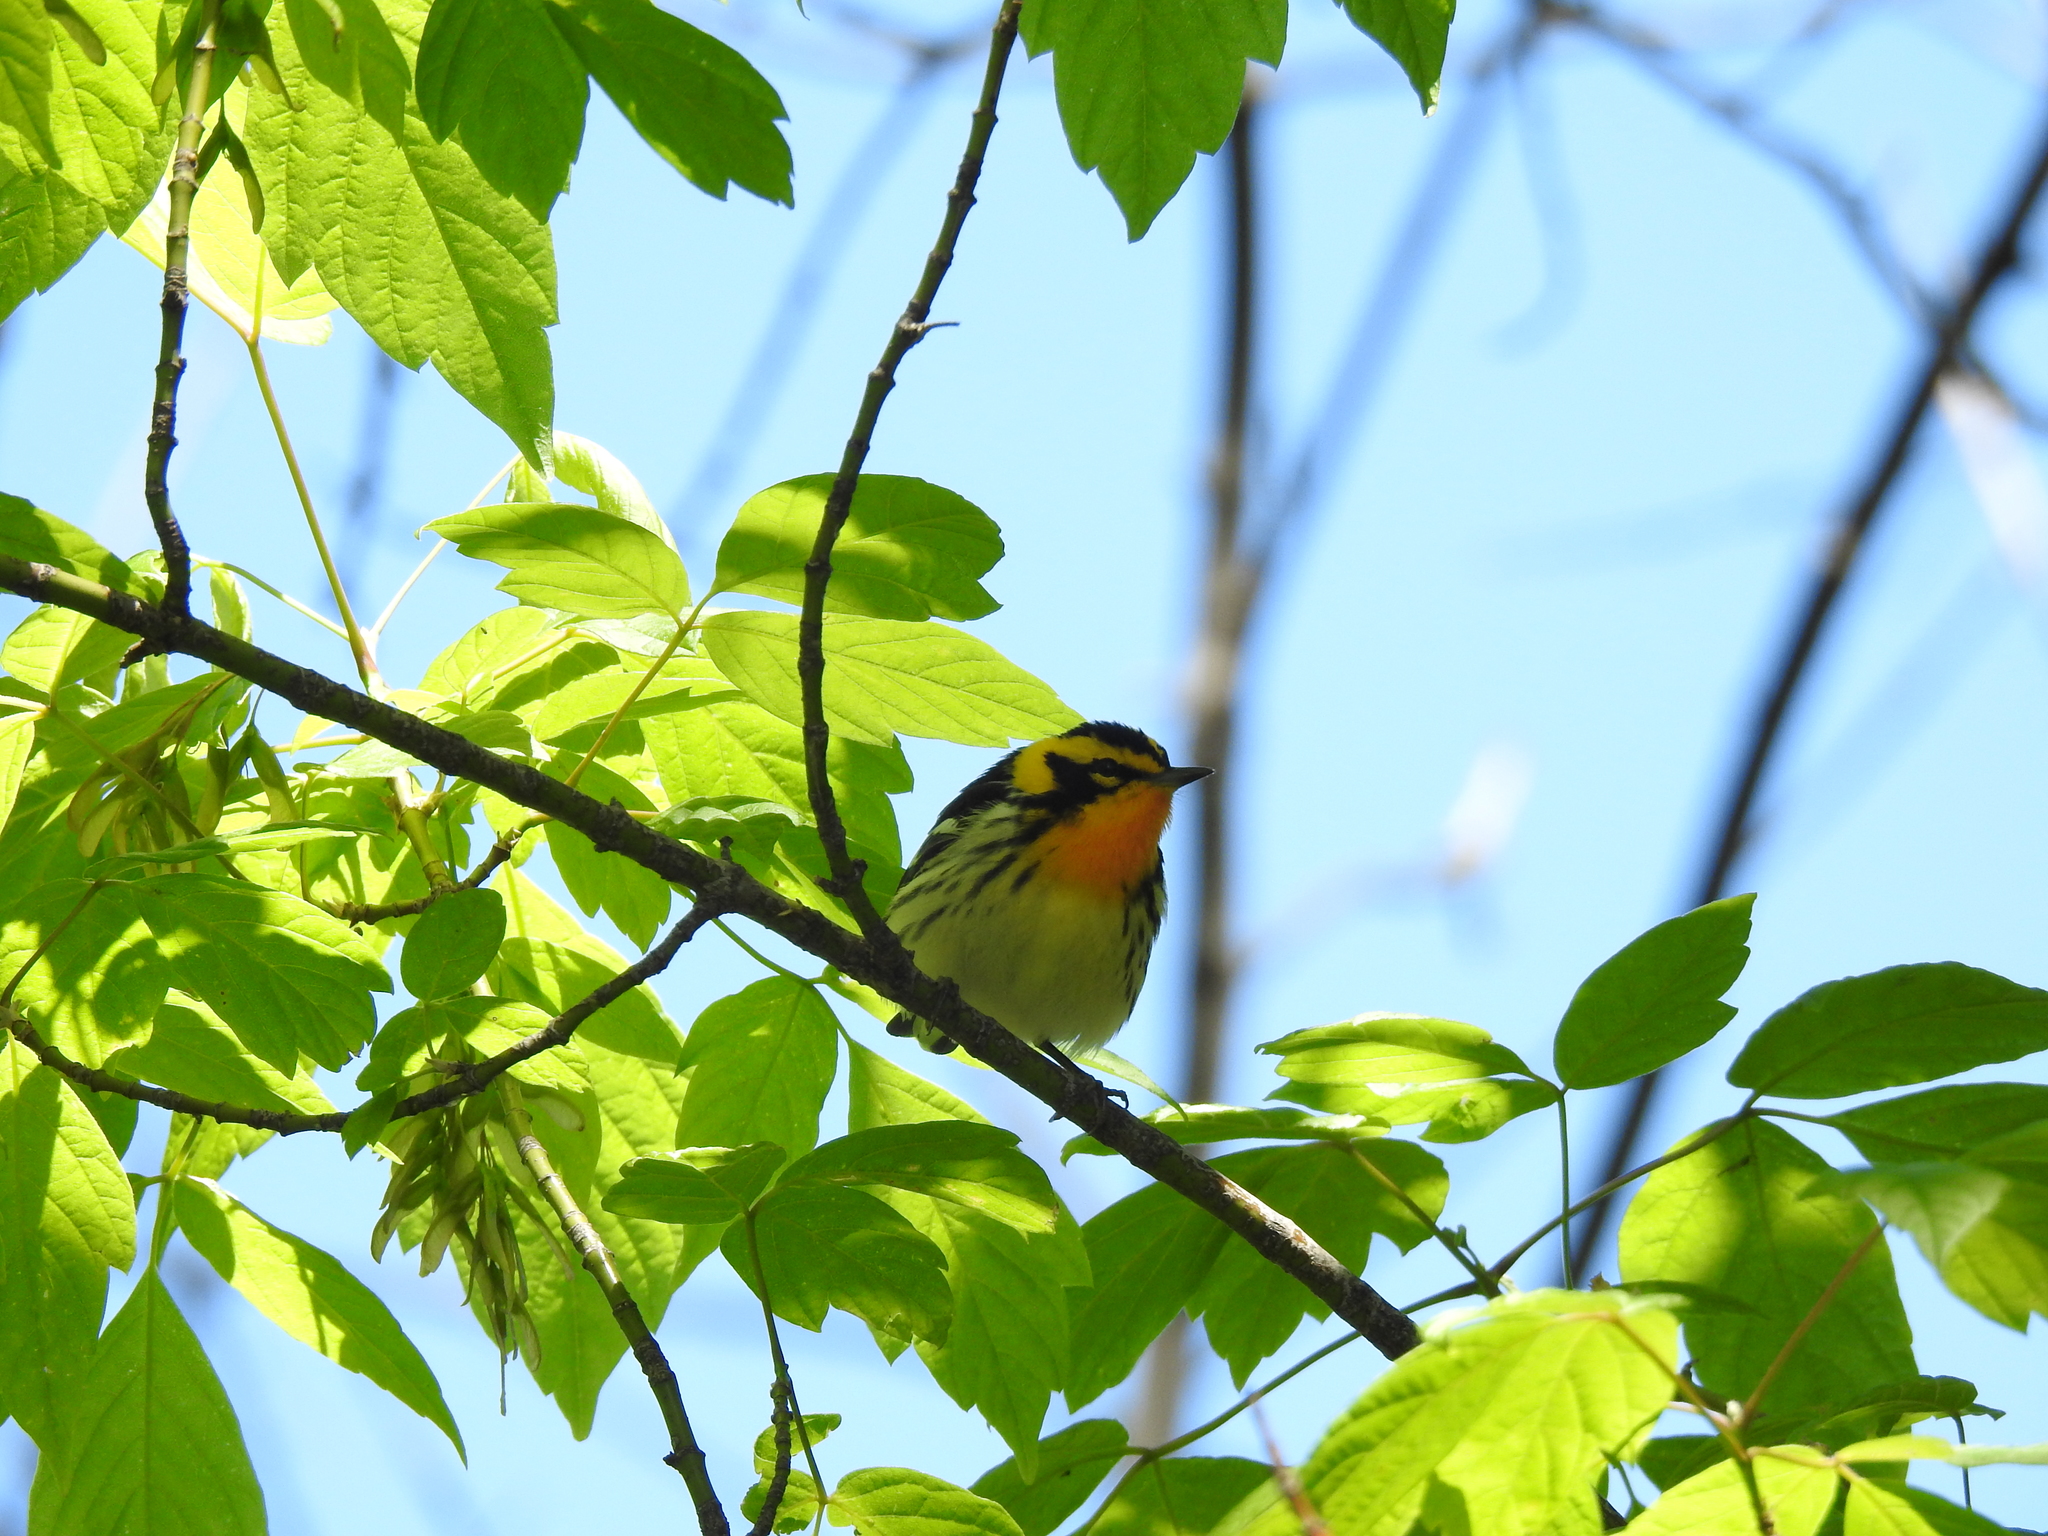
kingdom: Animalia
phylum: Chordata
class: Aves
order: Passeriformes
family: Parulidae
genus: Setophaga
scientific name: Setophaga fusca
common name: Blackburnian warbler
